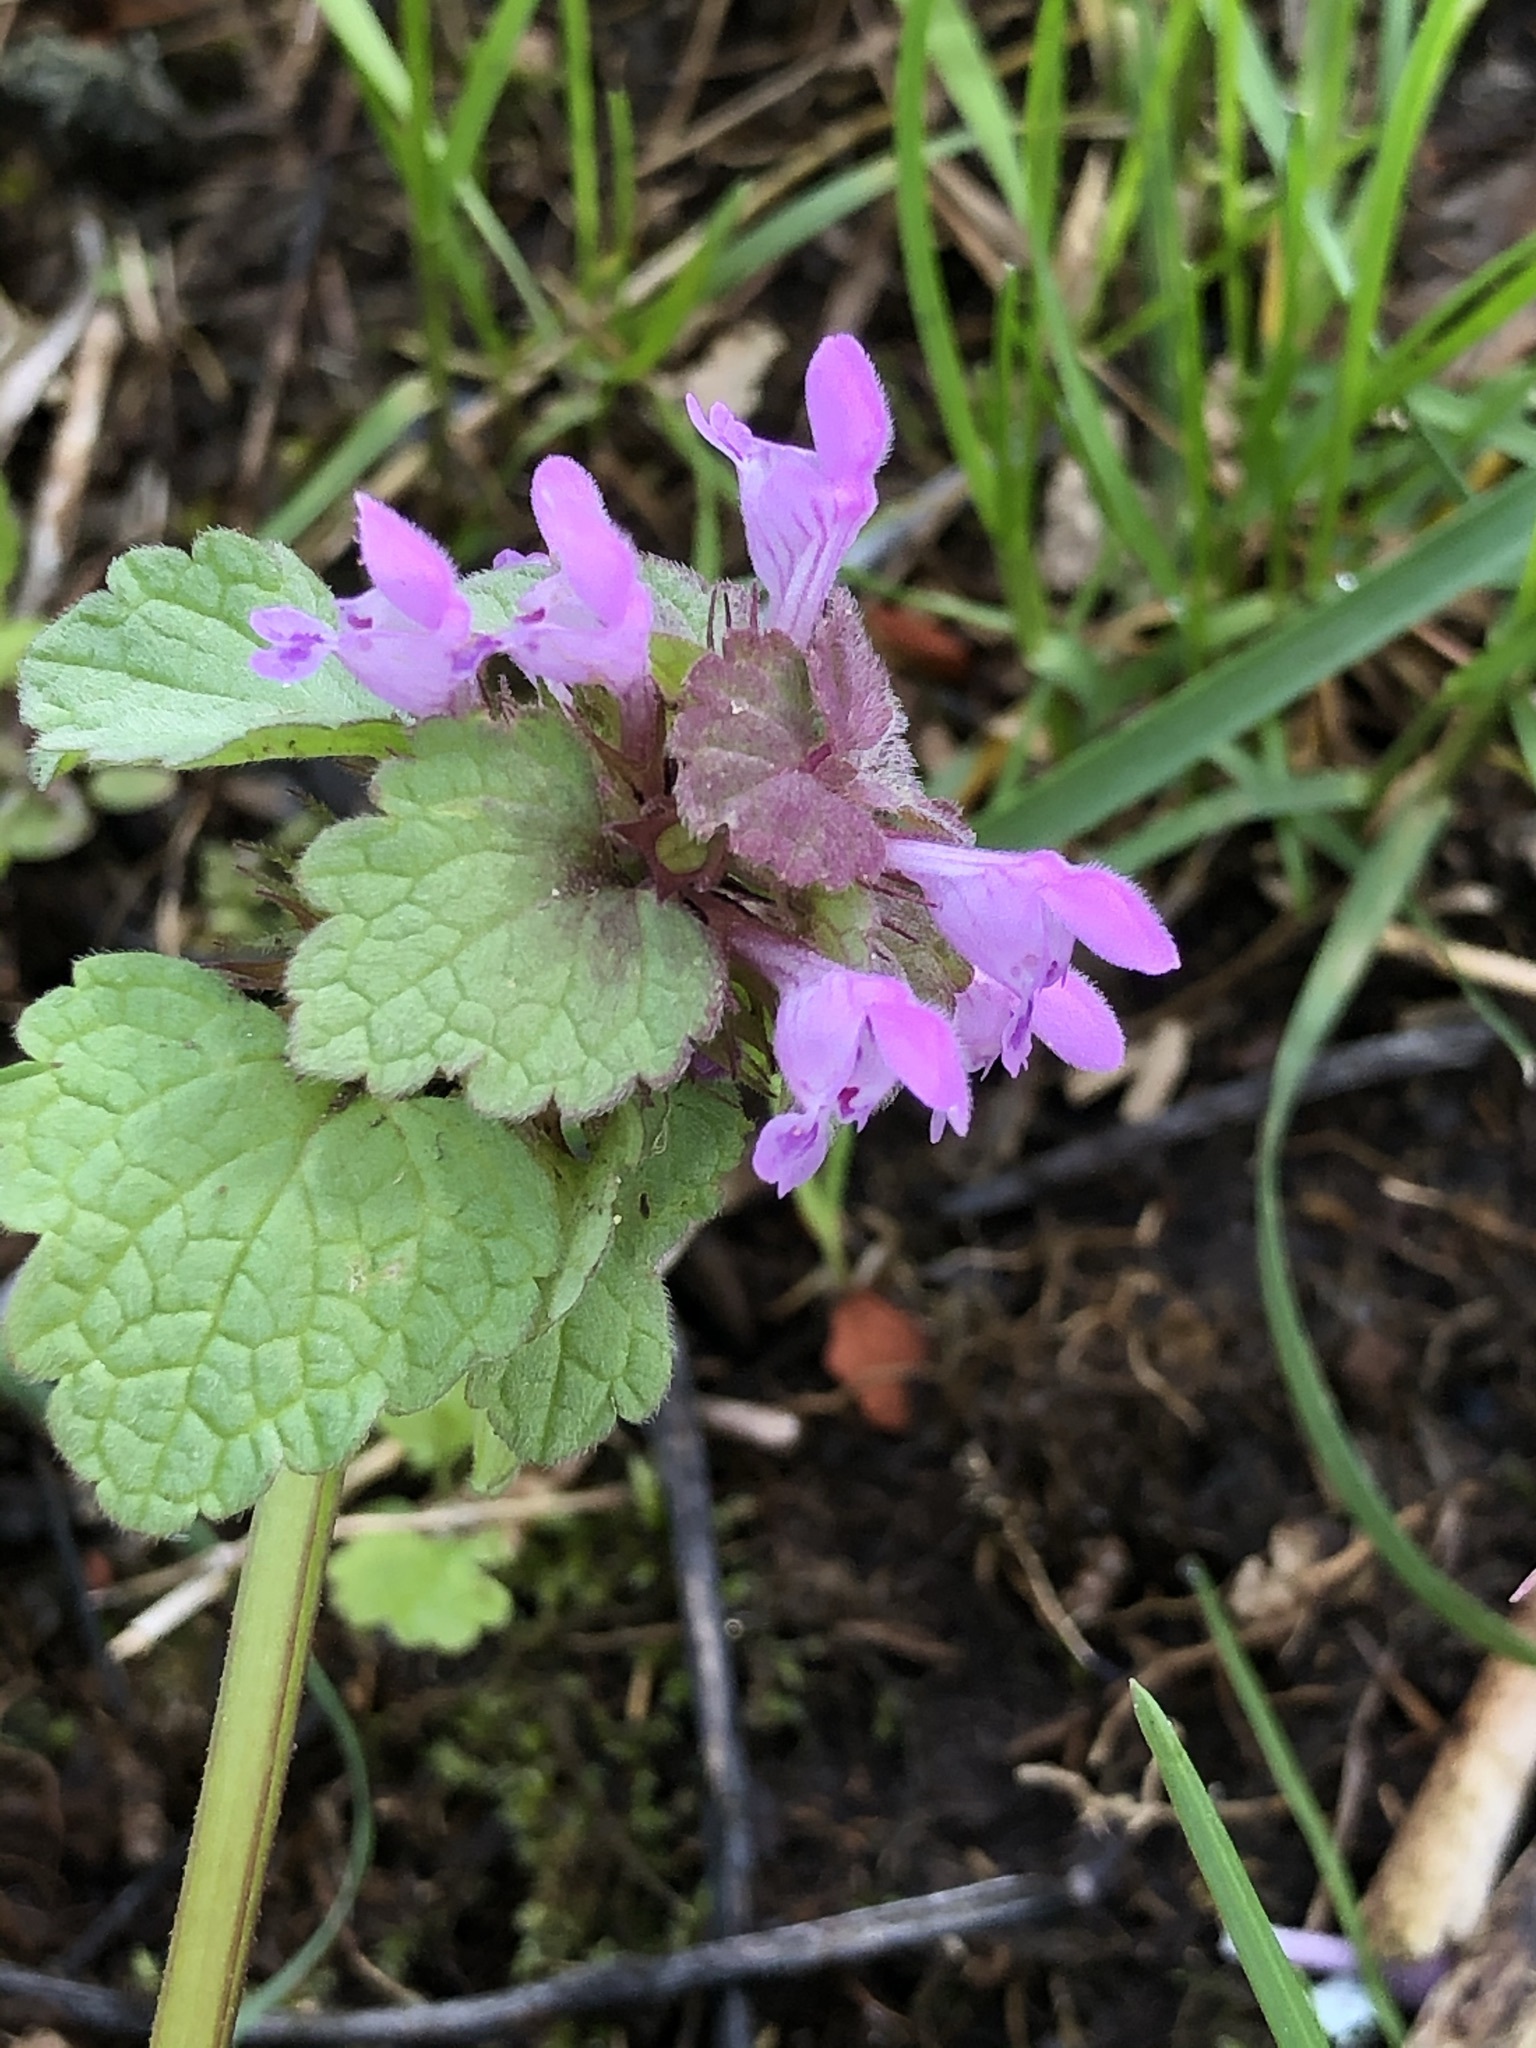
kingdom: Plantae
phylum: Tracheophyta
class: Magnoliopsida
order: Lamiales
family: Lamiaceae
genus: Lamium
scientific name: Lamium purpureum
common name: Red dead-nettle
